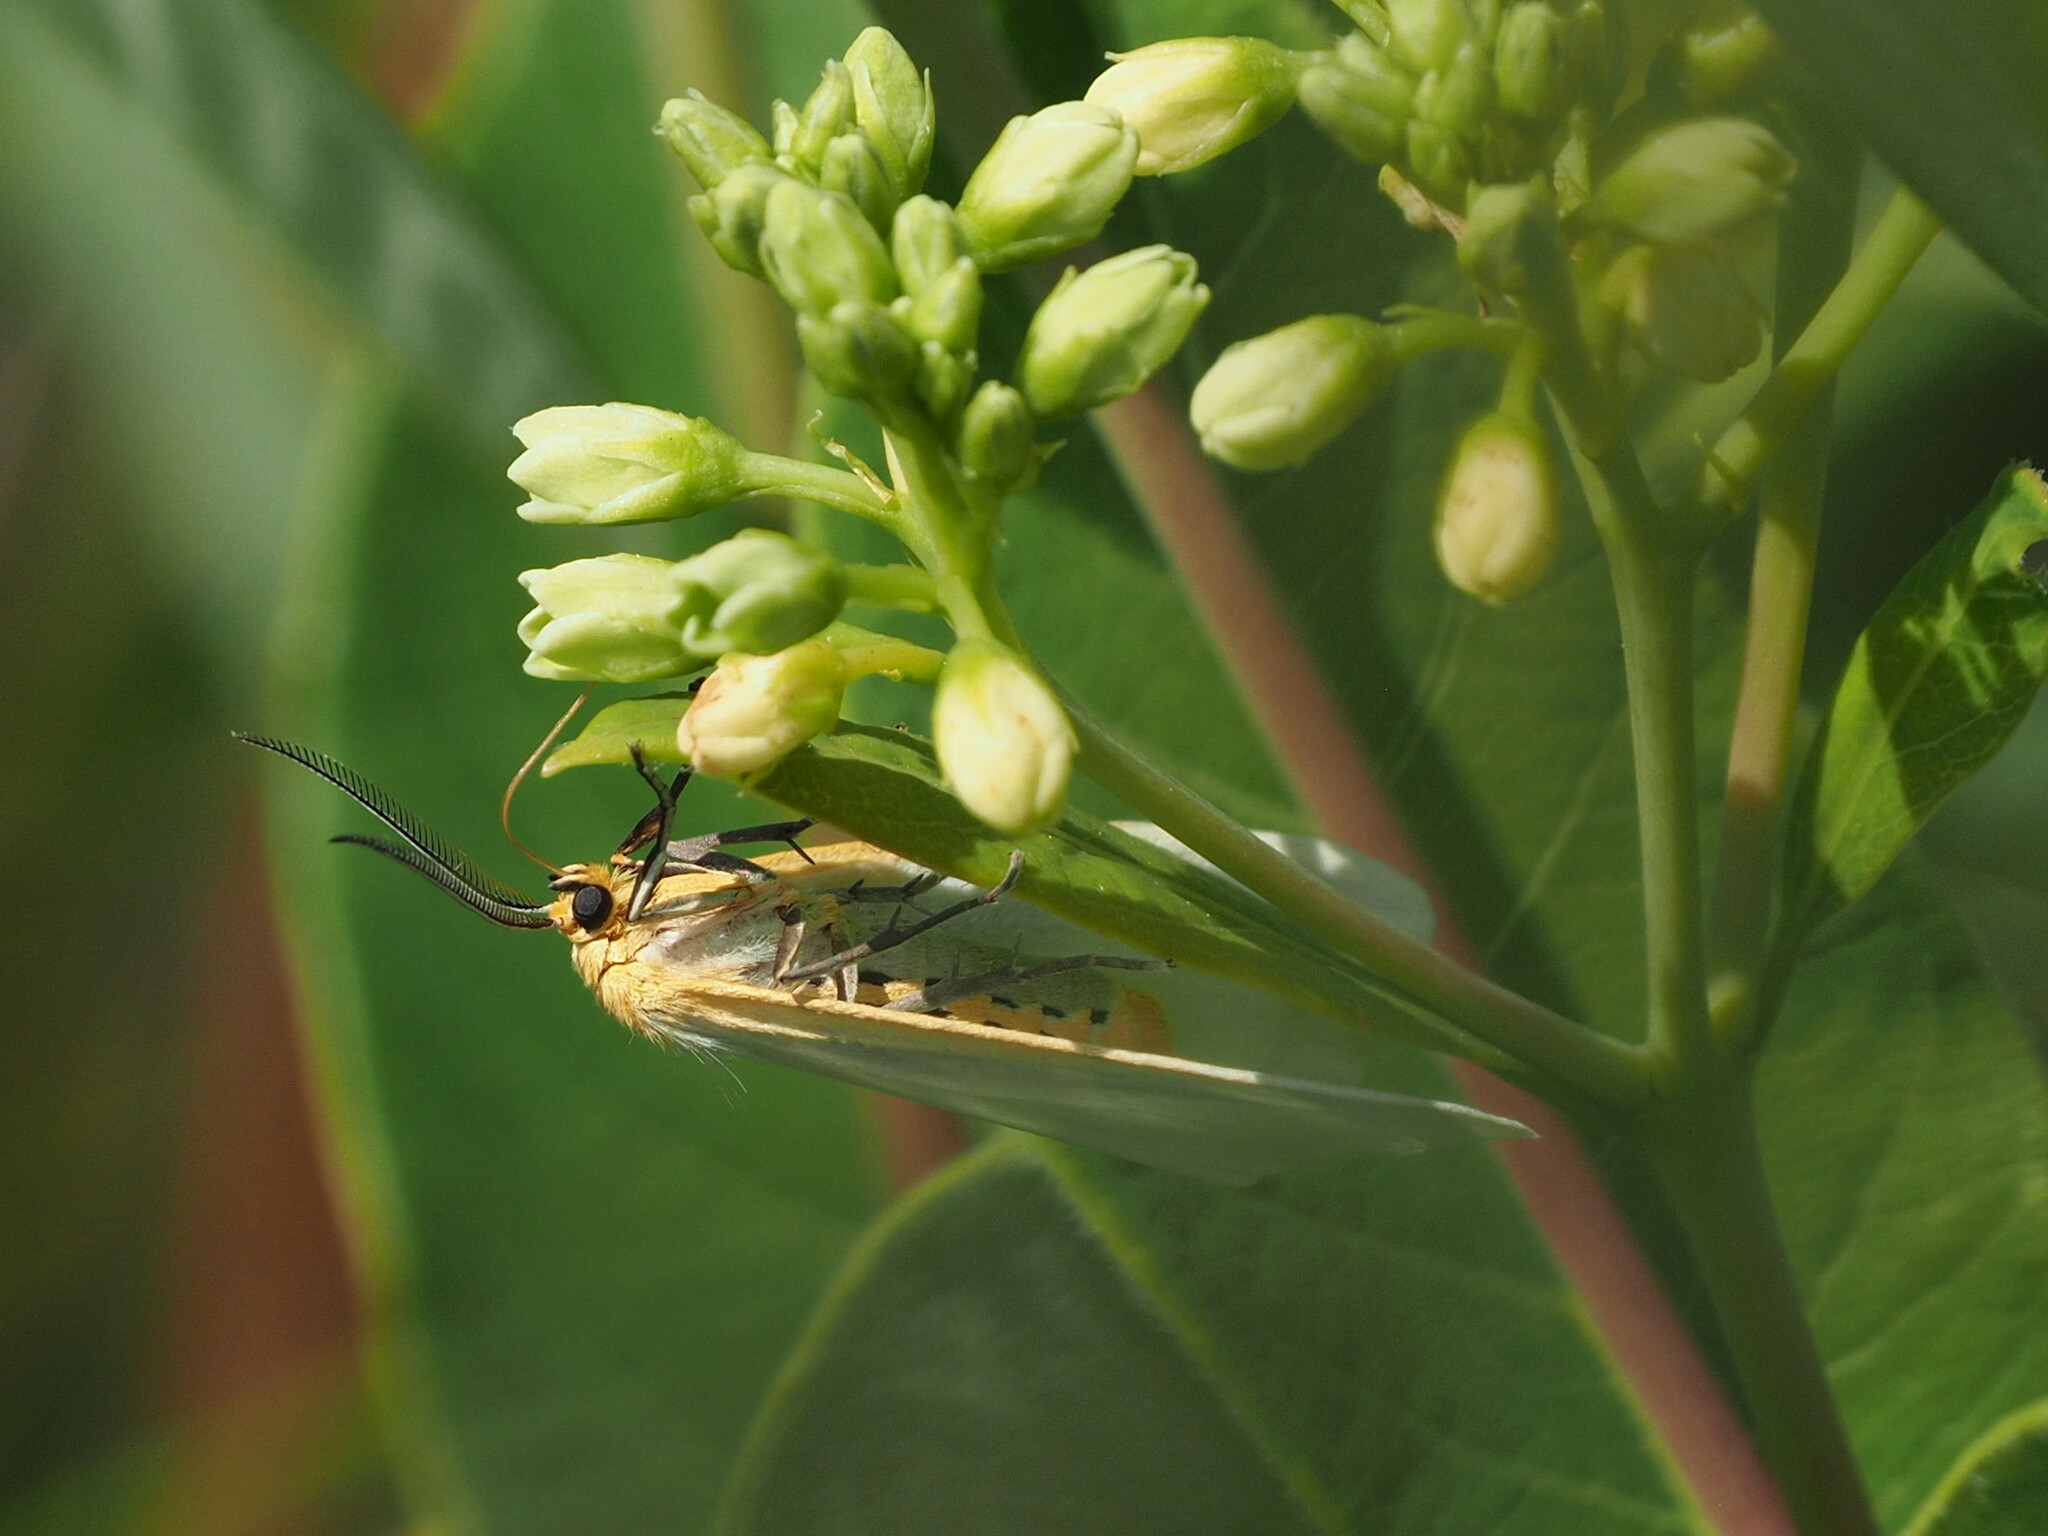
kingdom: Animalia
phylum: Arthropoda
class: Insecta
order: Lepidoptera
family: Erebidae
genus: Cycnia
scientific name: Cycnia tenera
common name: Delicate cycnia moth
